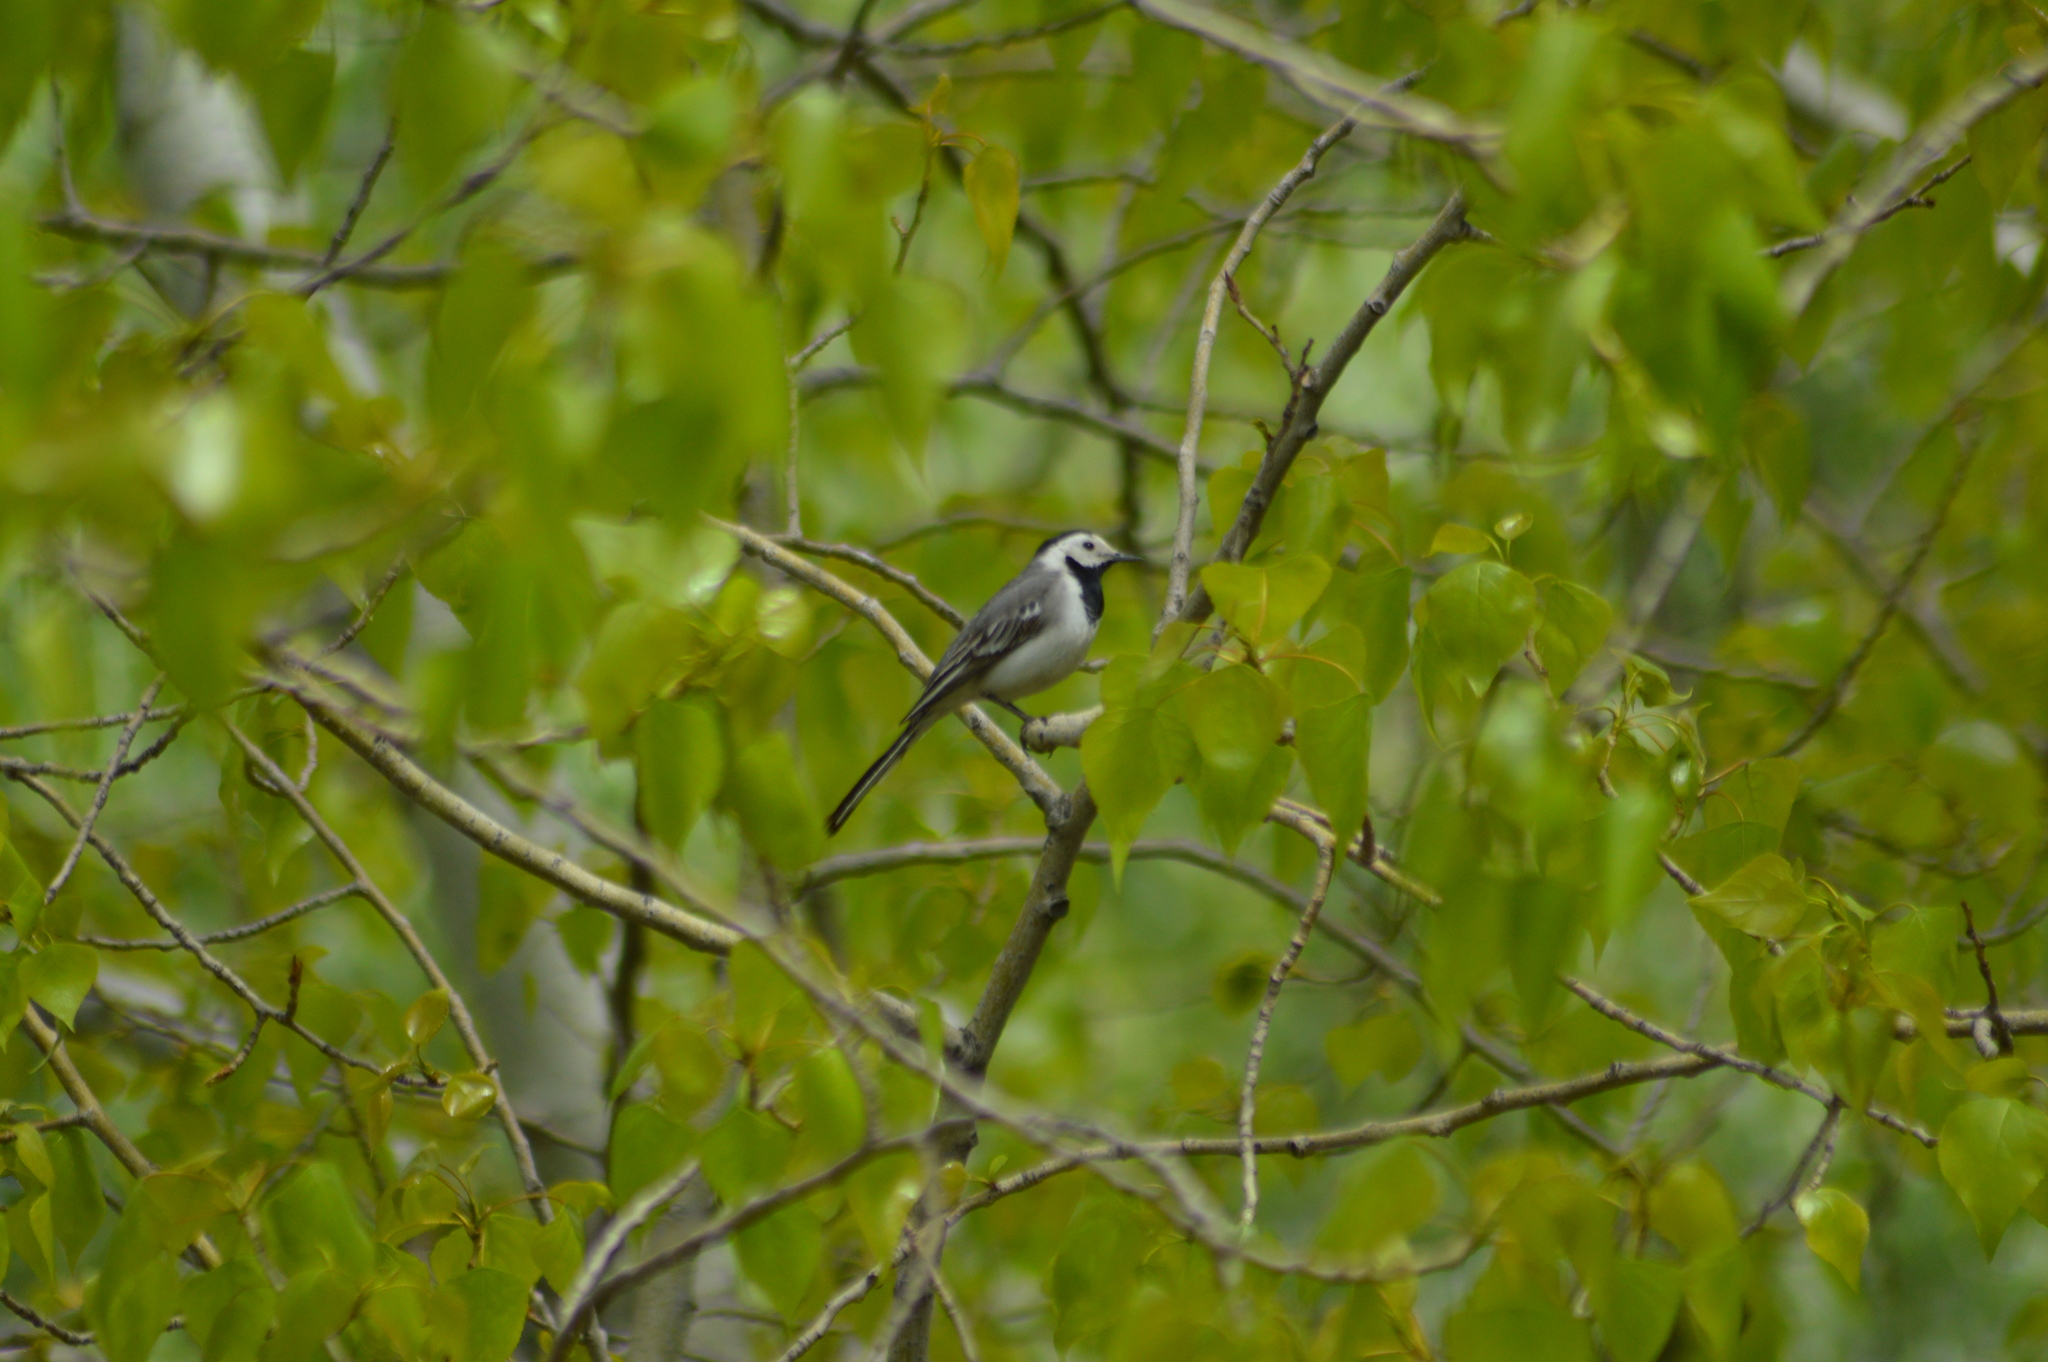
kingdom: Animalia
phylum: Chordata
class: Aves
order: Passeriformes
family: Motacillidae
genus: Motacilla
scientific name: Motacilla alba
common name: White wagtail
